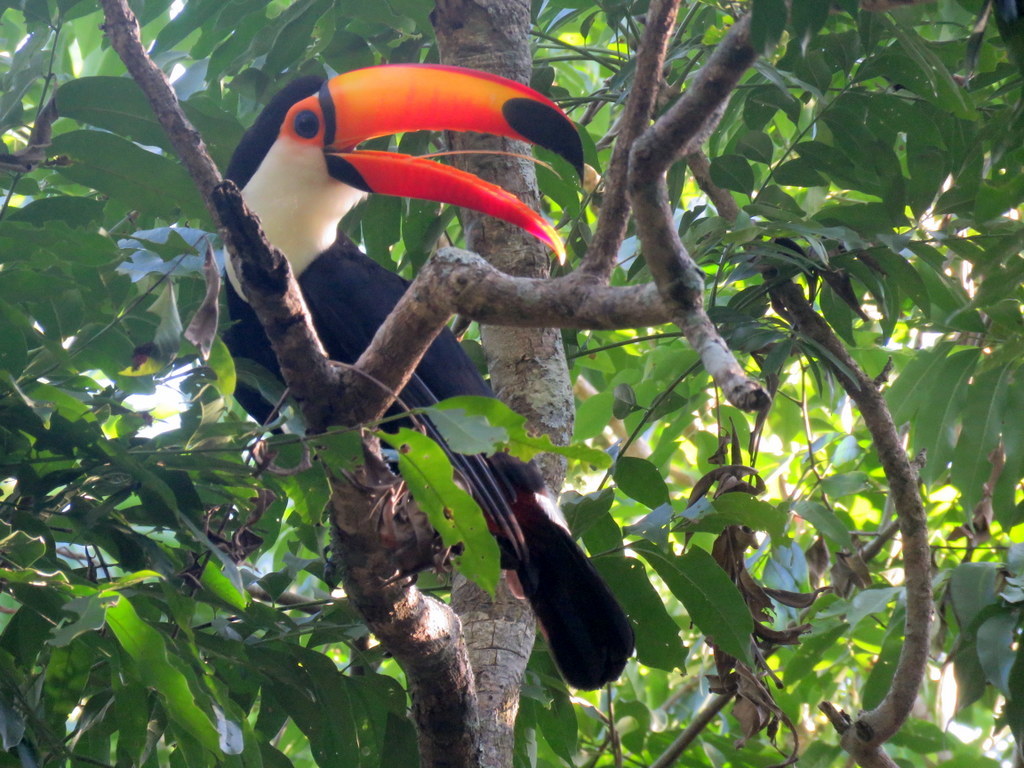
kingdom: Animalia
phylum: Chordata
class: Aves
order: Piciformes
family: Ramphastidae
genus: Ramphastos
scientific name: Ramphastos toco
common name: Toco toucan
